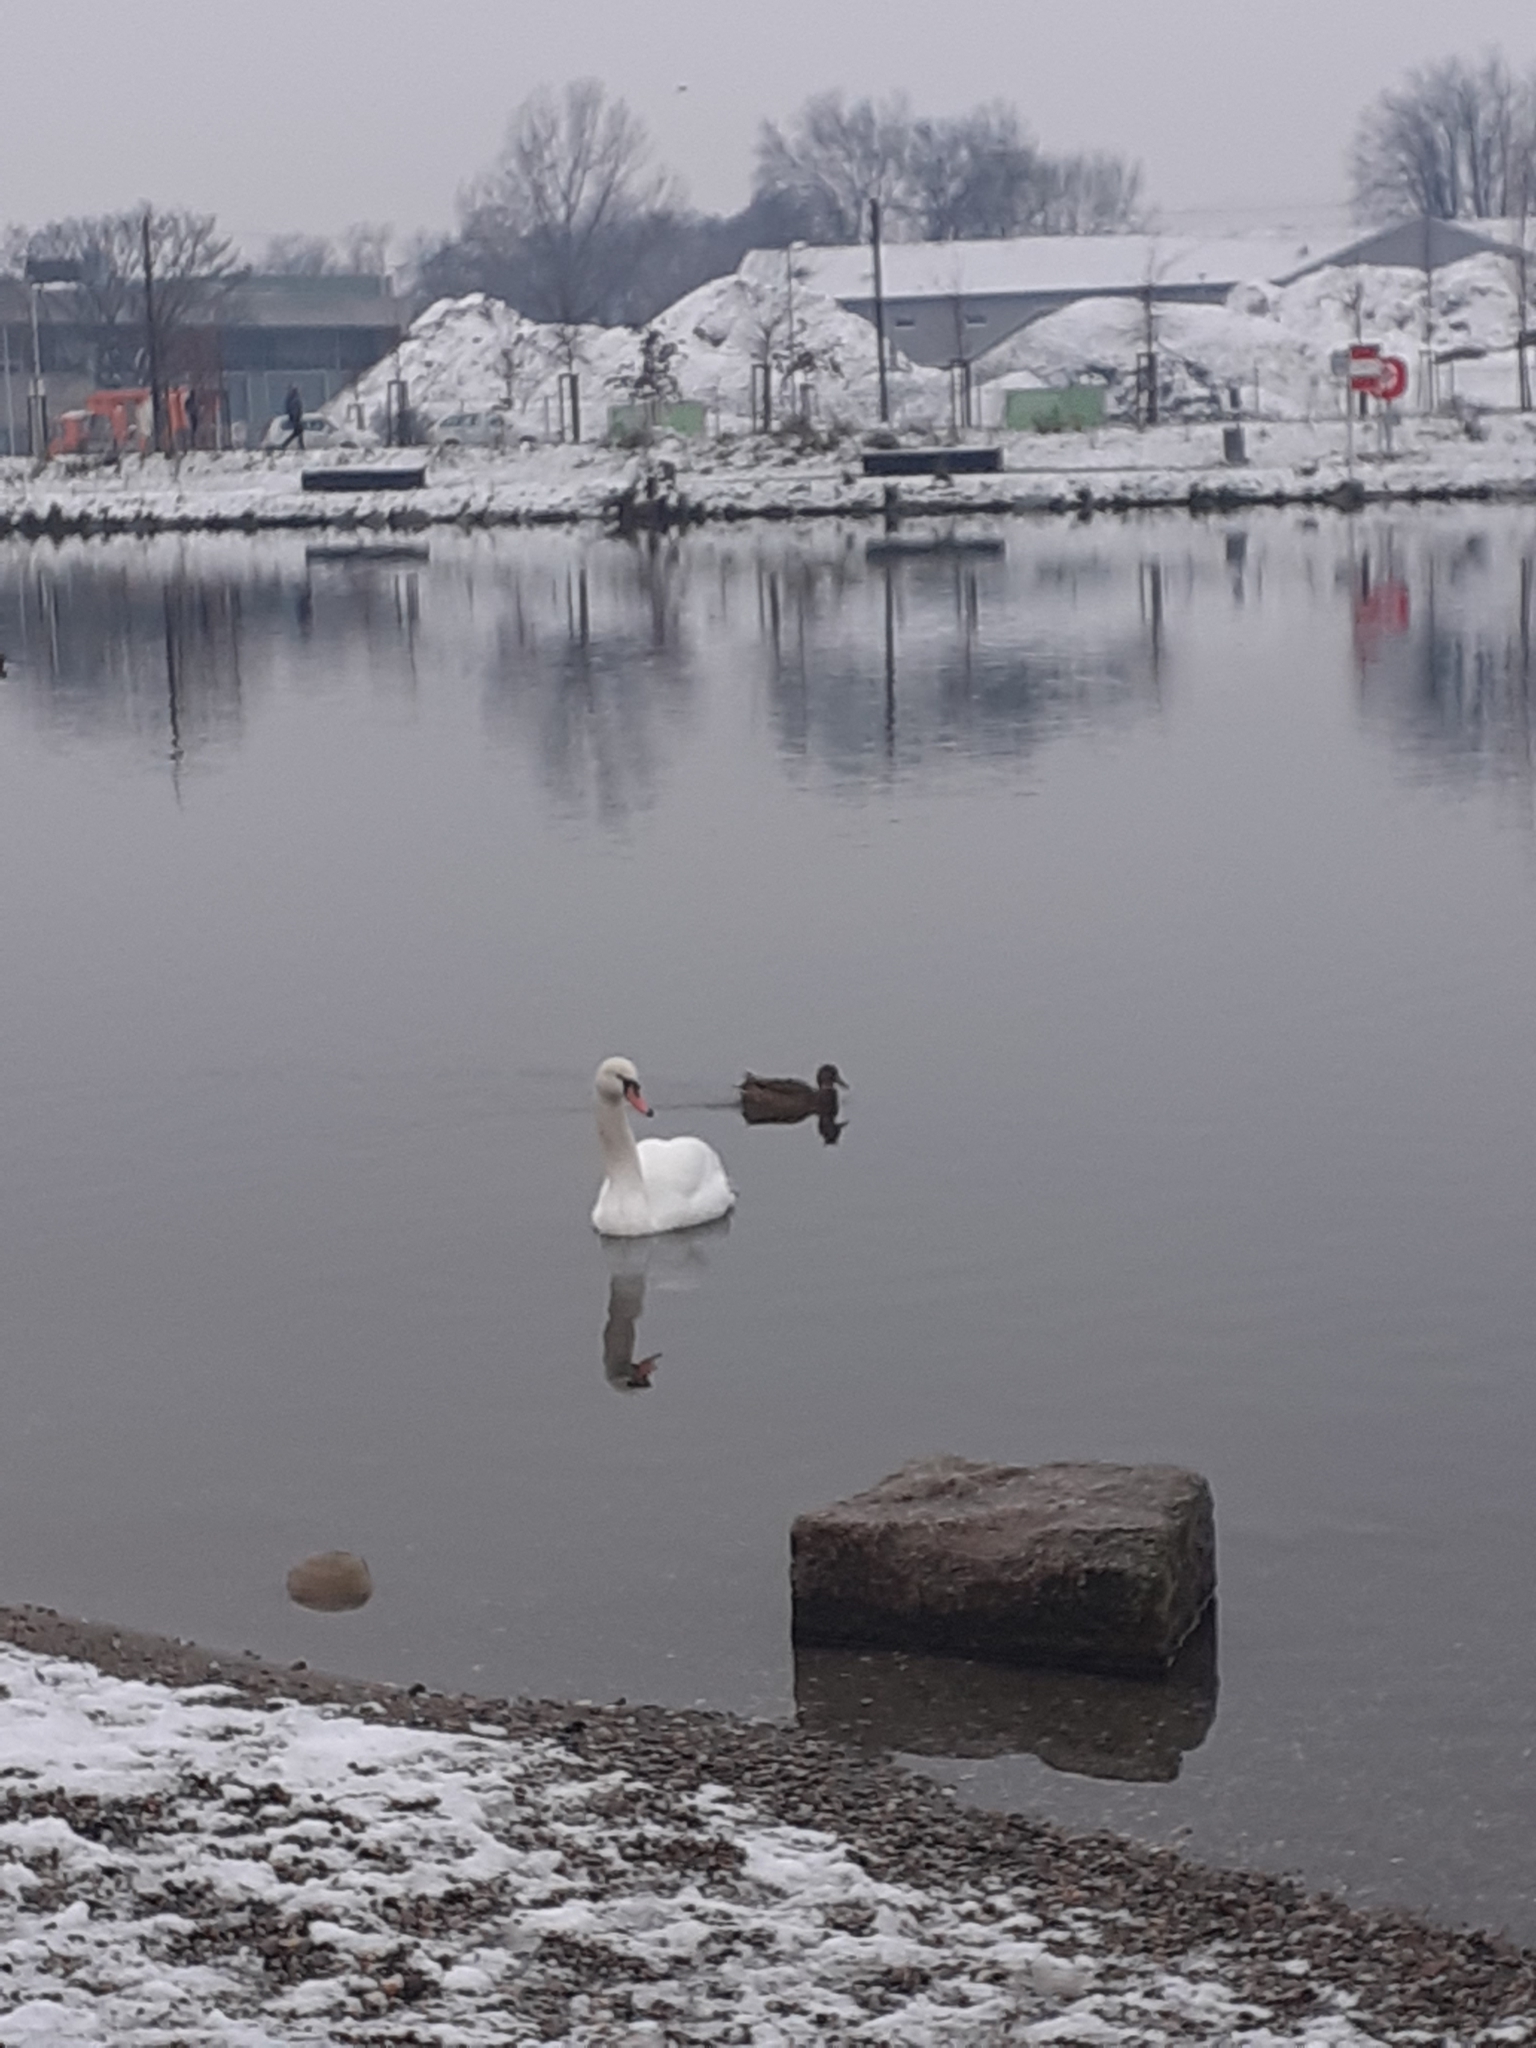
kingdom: Animalia
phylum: Chordata
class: Aves
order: Anseriformes
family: Anatidae
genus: Cygnus
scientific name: Cygnus olor
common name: Mute swan
